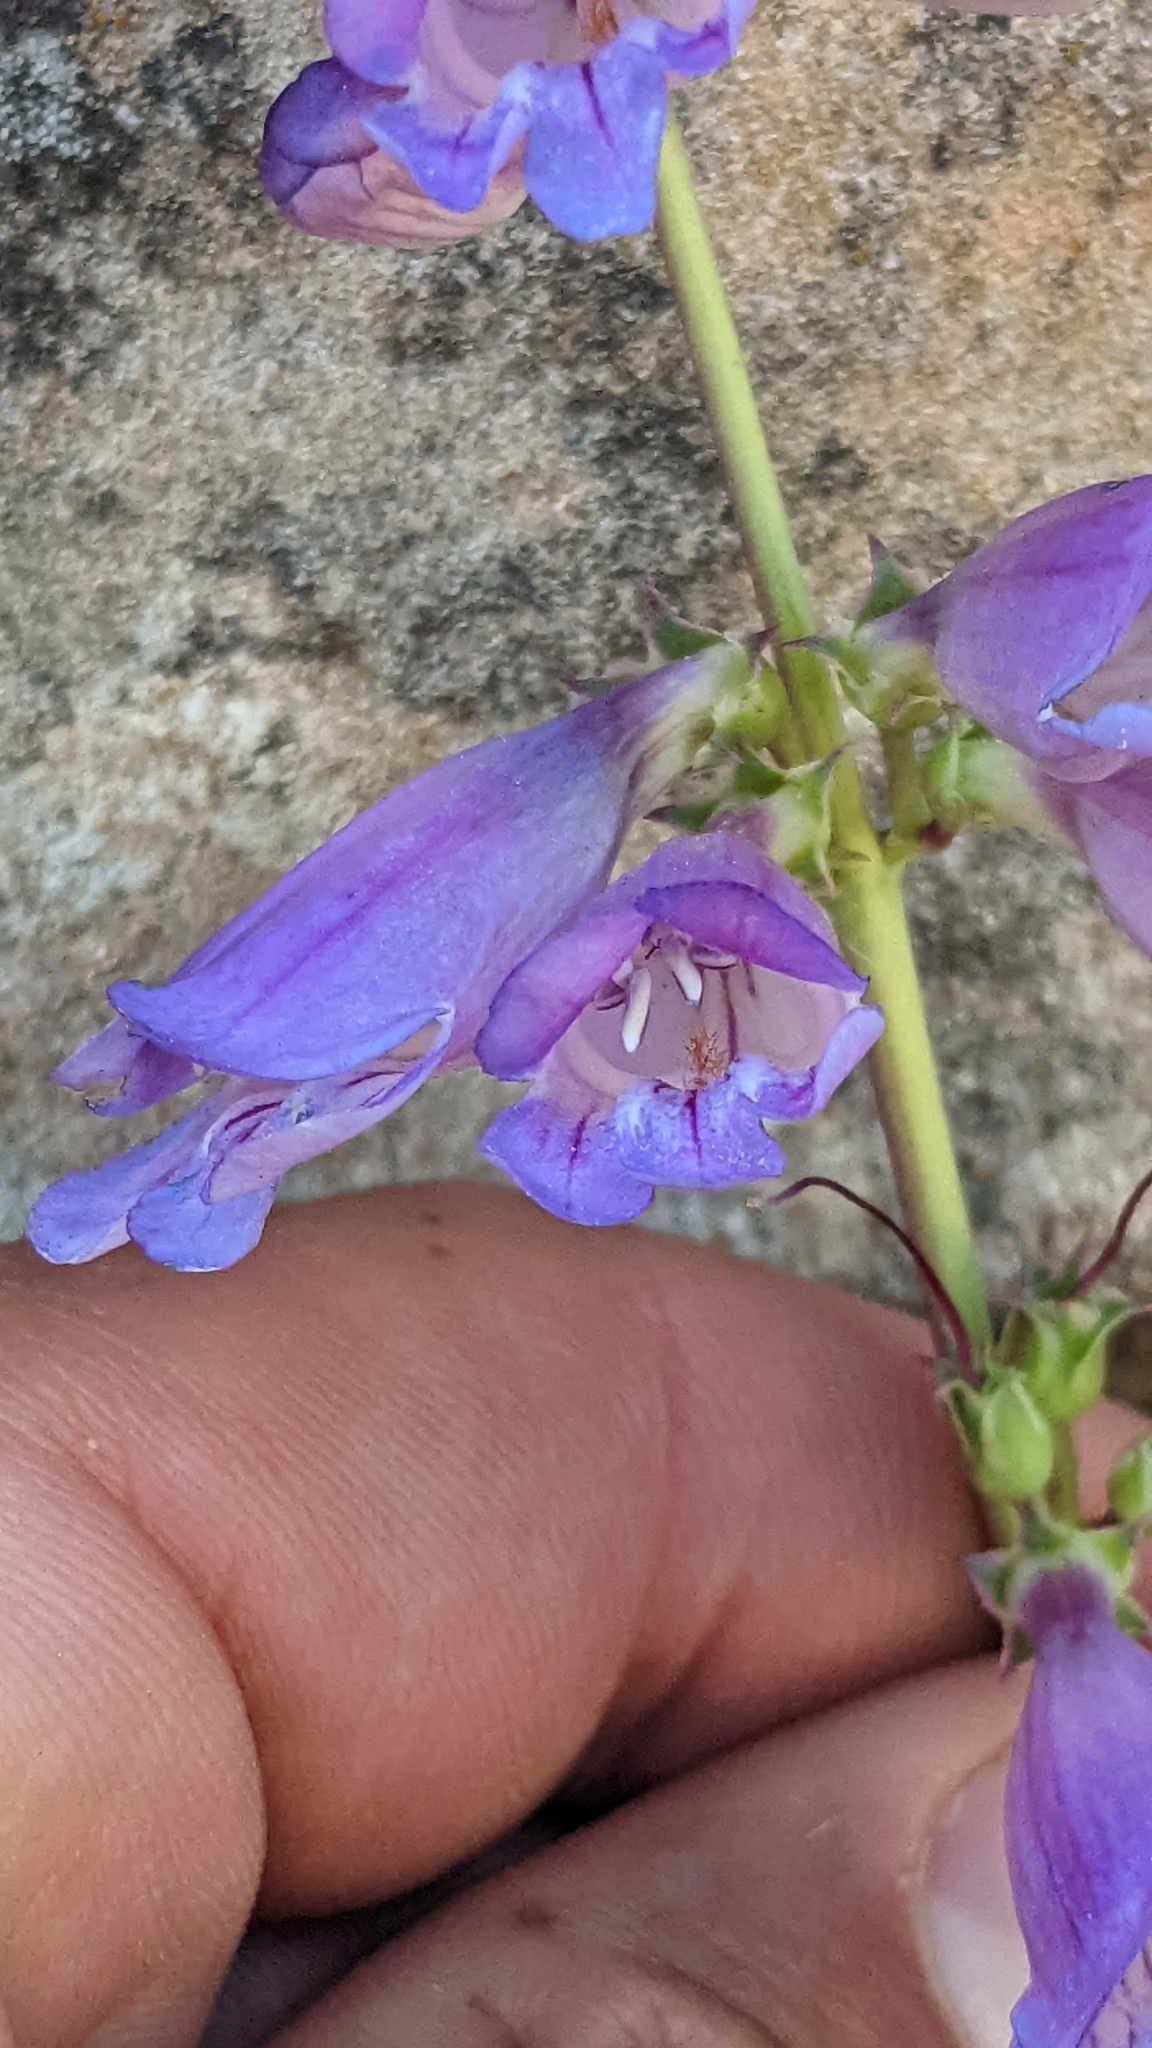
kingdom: Plantae
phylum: Tracheophyta
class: Magnoliopsida
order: Lamiales
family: Plantaginaceae
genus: Penstemon
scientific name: Penstemon laevis
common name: Smooth penstemon
